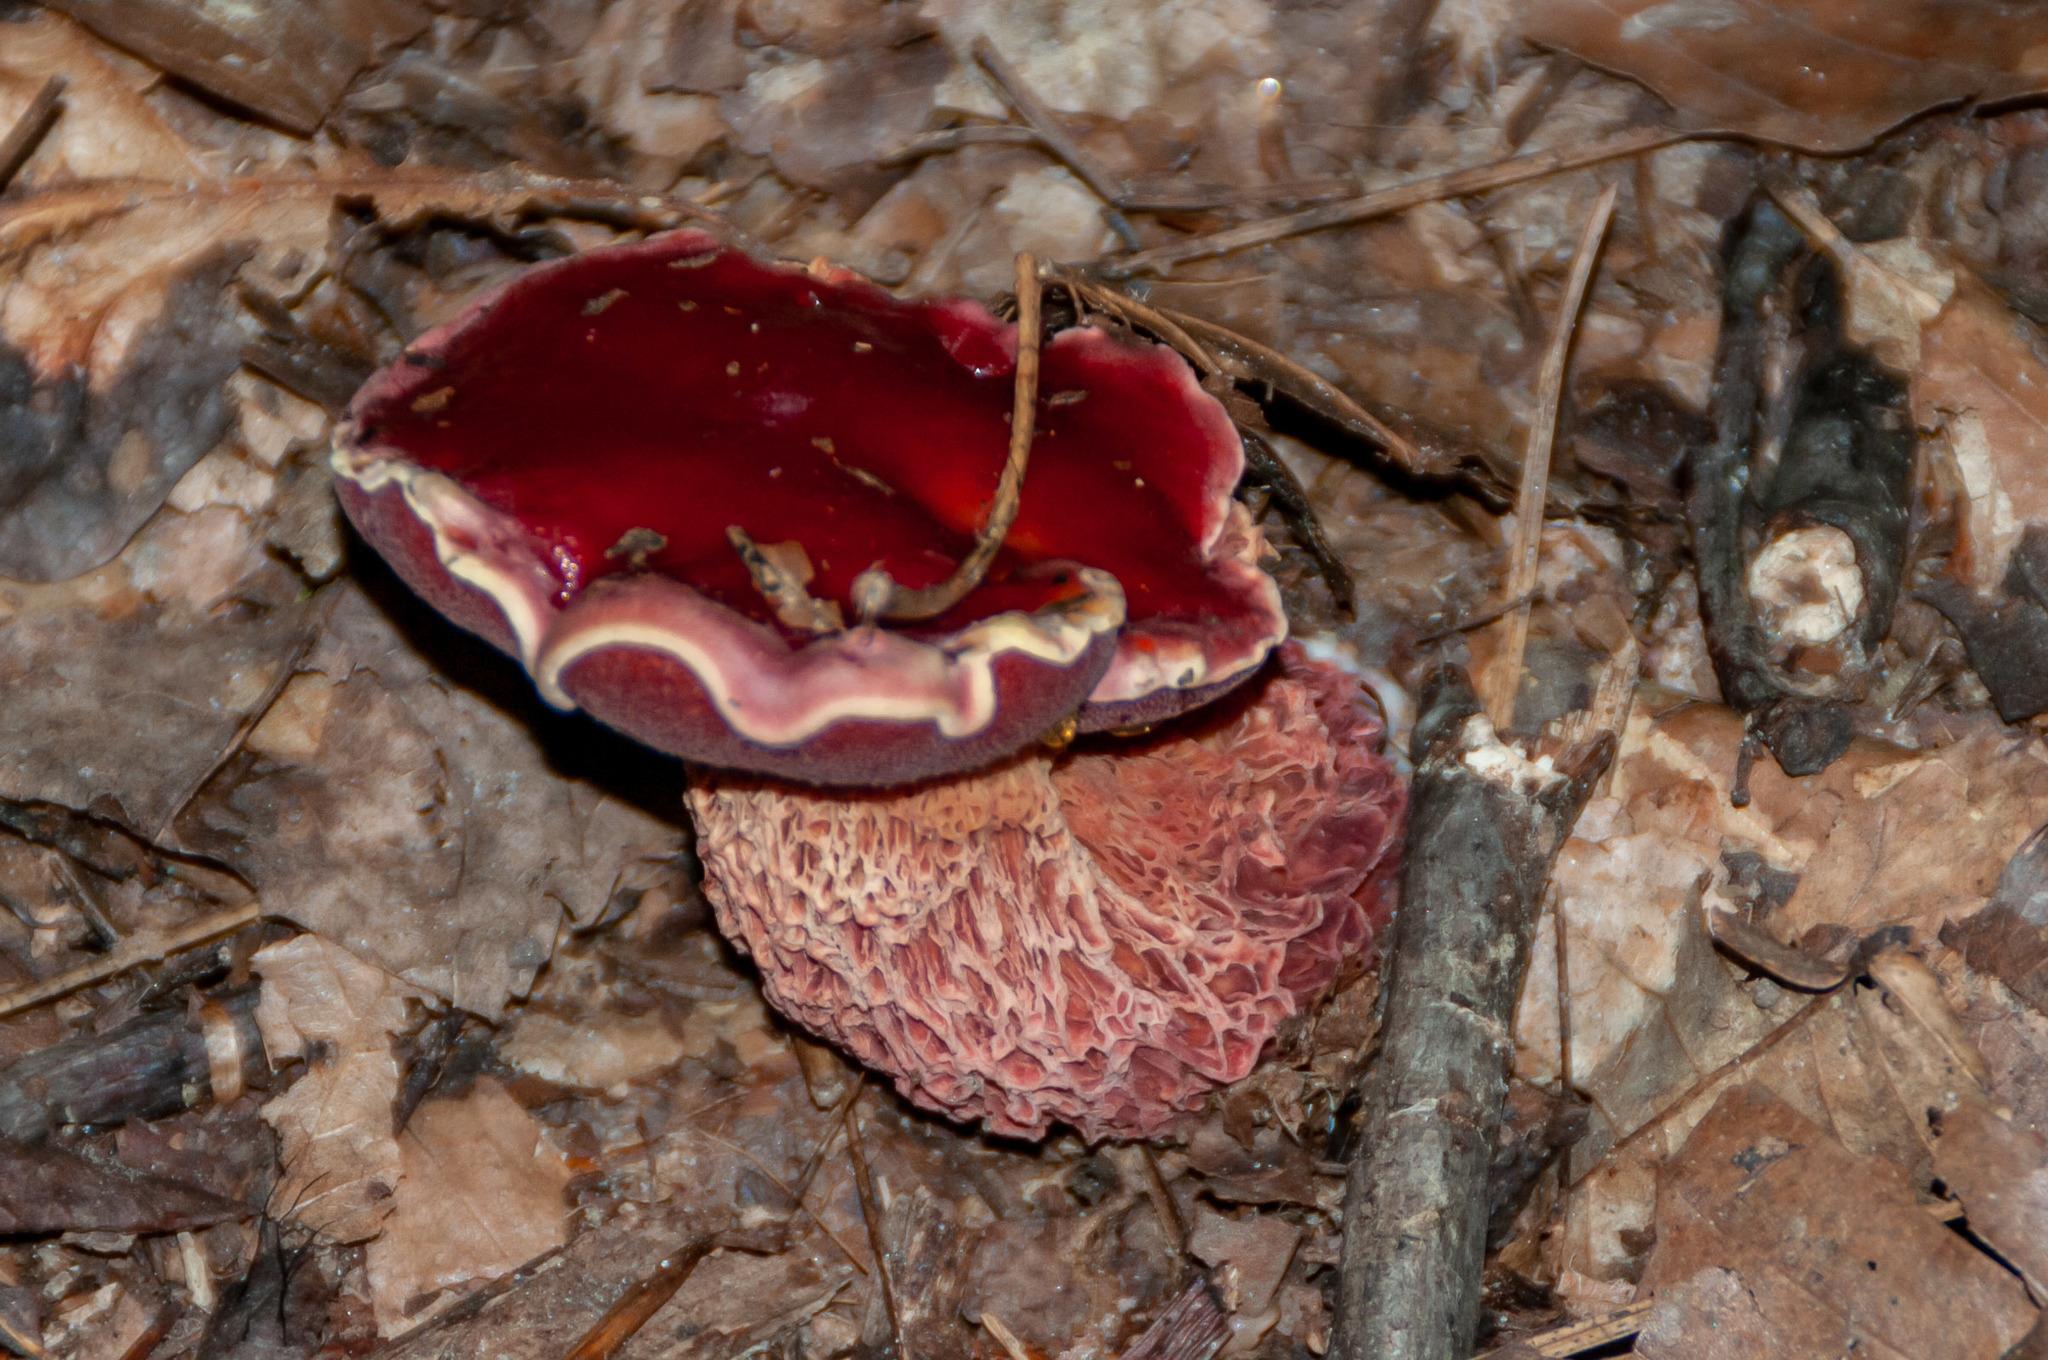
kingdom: Fungi
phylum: Basidiomycota
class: Agaricomycetes
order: Boletales
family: Boletaceae
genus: Butyriboletus
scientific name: Butyriboletus frostii
